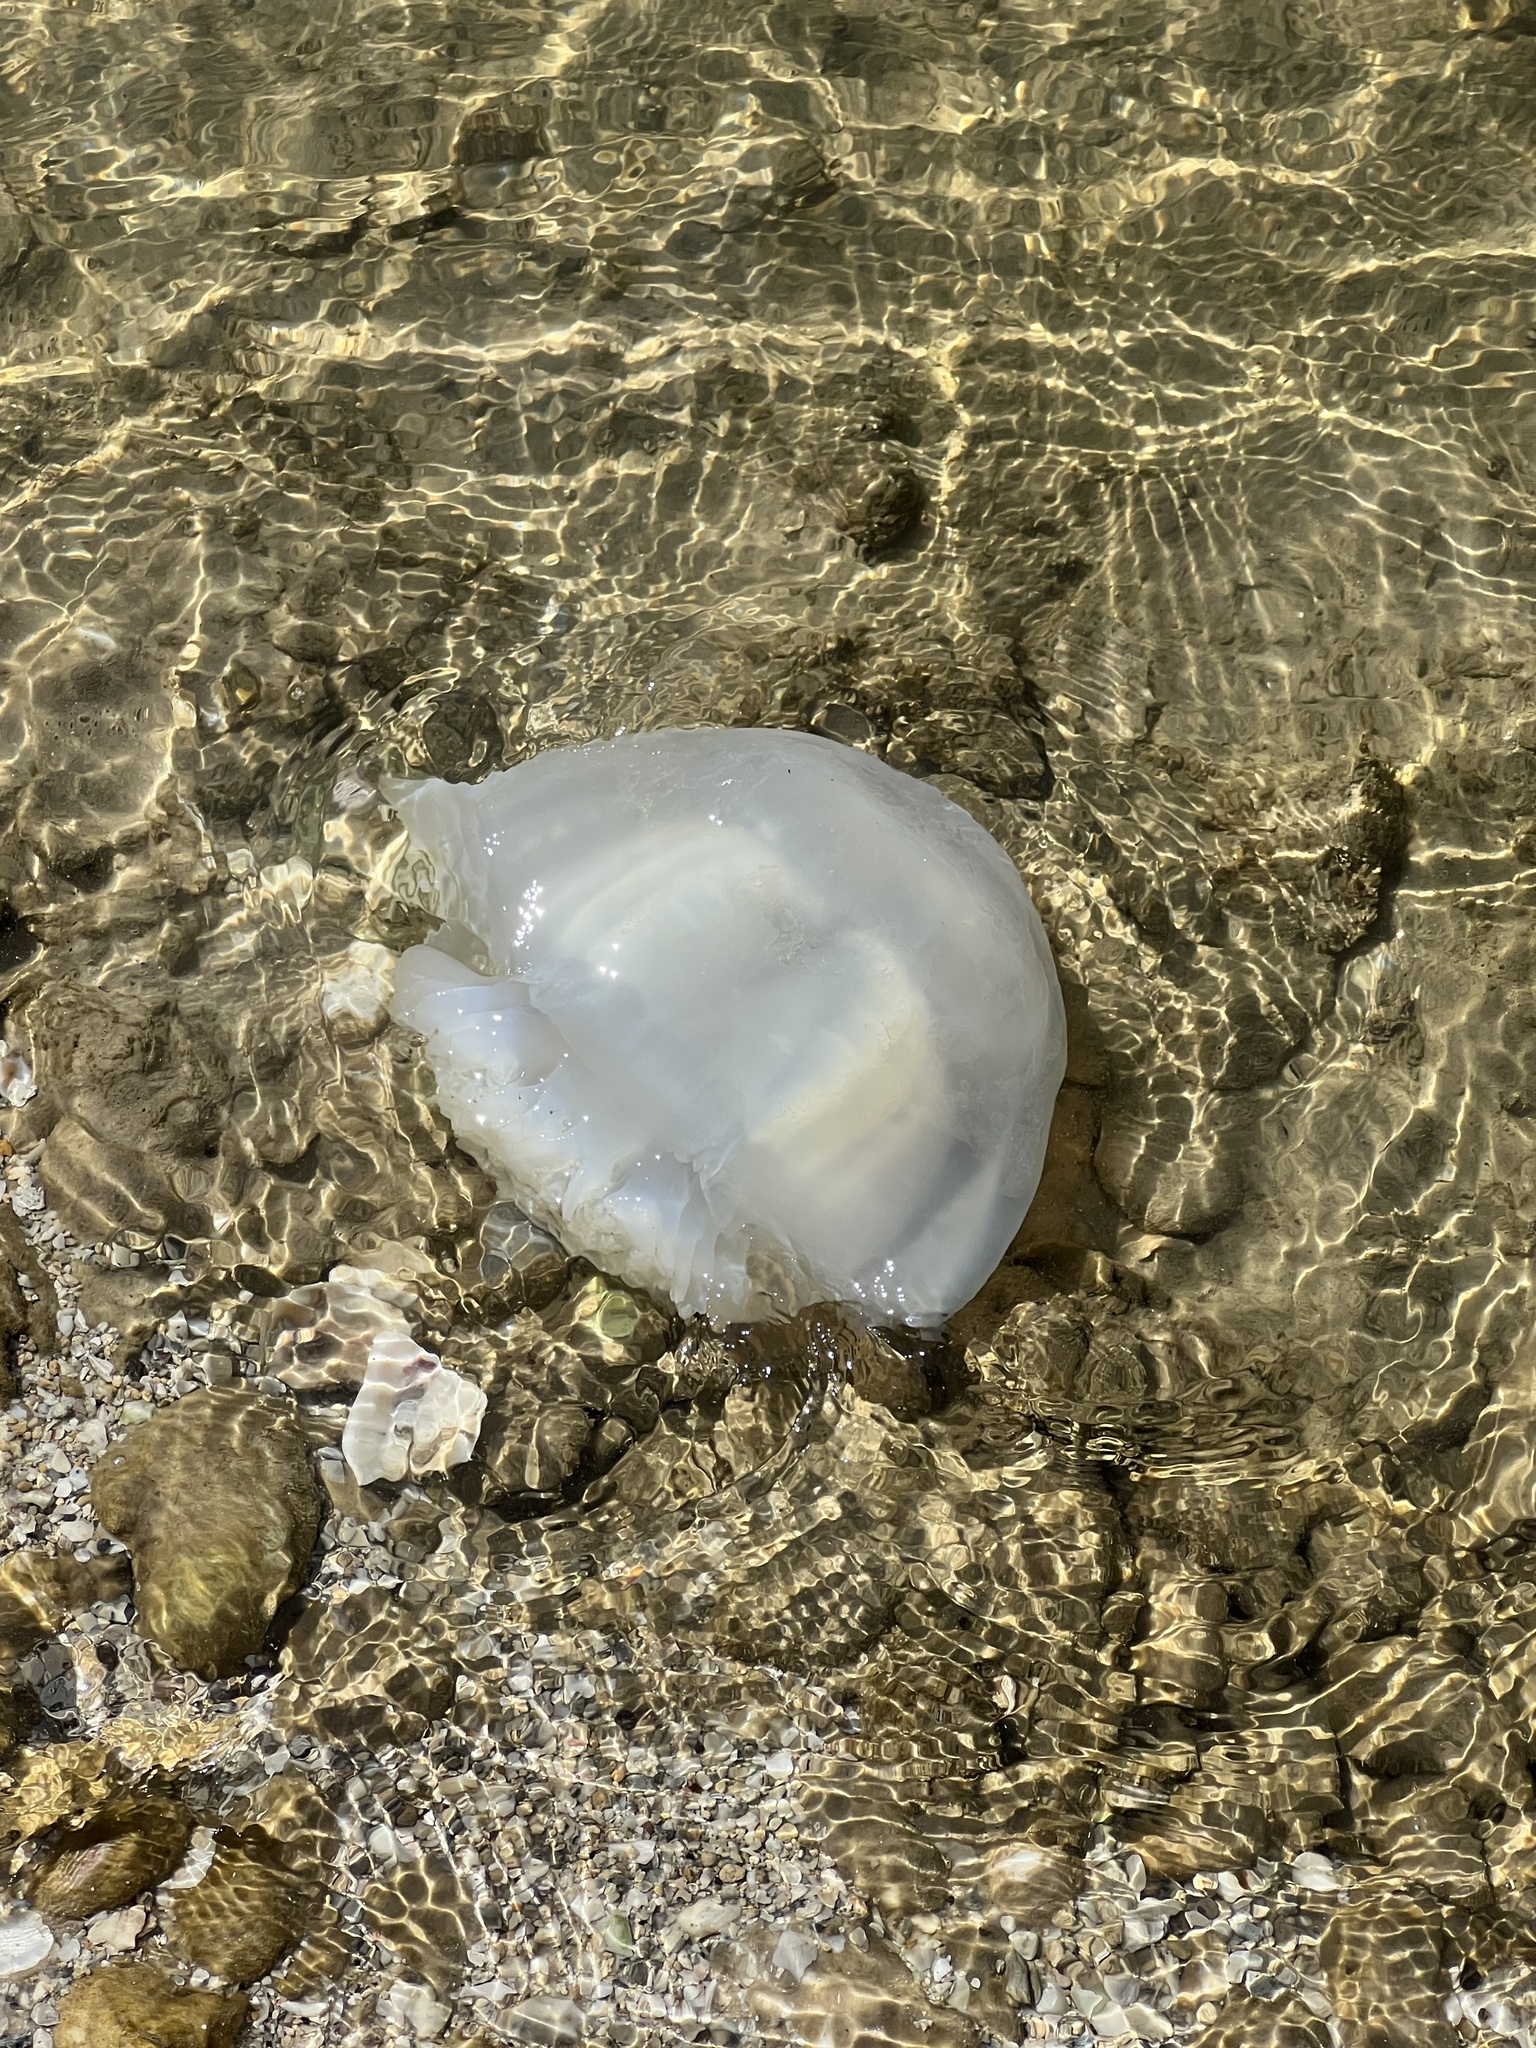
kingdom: Animalia
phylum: Cnidaria
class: Scyphozoa
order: Rhizostomeae
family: Stomolophidae
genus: Stomolophus
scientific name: Stomolophus meleagris
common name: Cabbagehead
